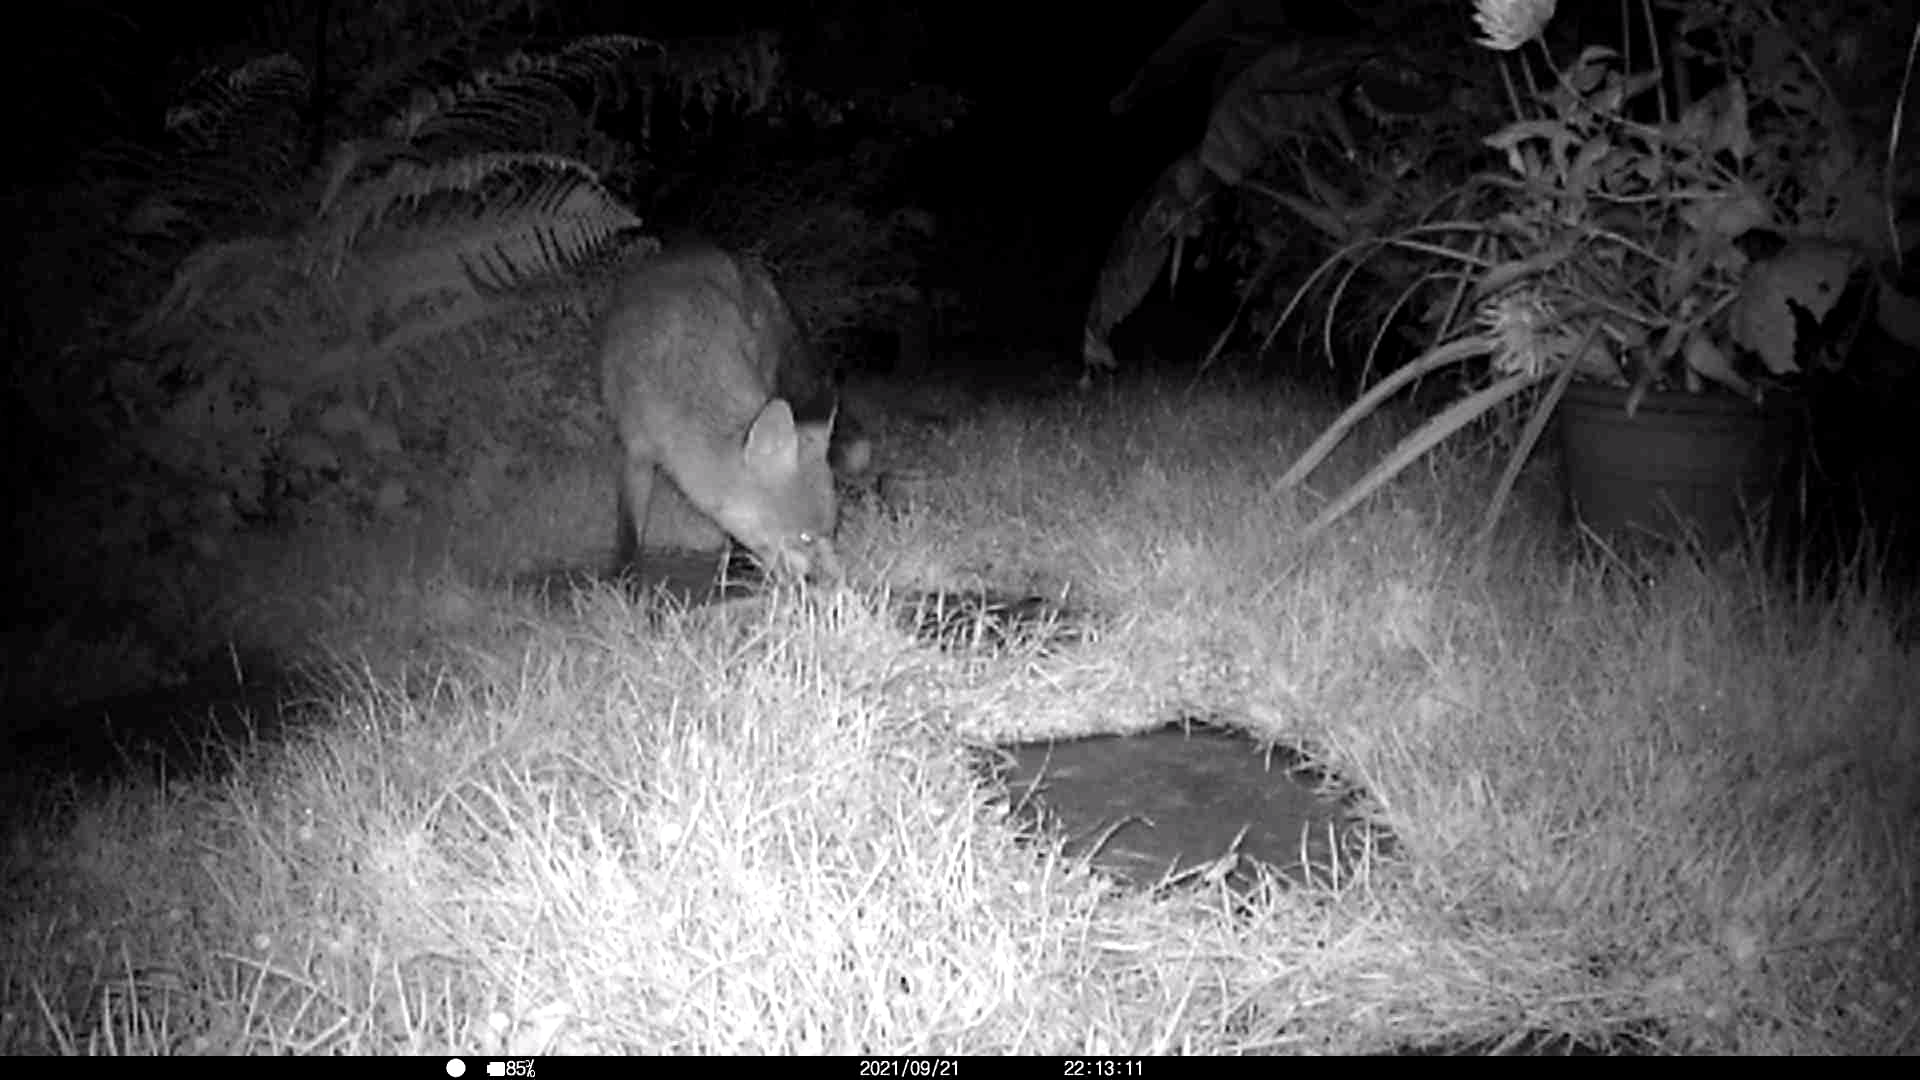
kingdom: Animalia
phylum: Chordata
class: Mammalia
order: Carnivora
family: Canidae
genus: Vulpes
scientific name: Vulpes vulpes
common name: Red fox
